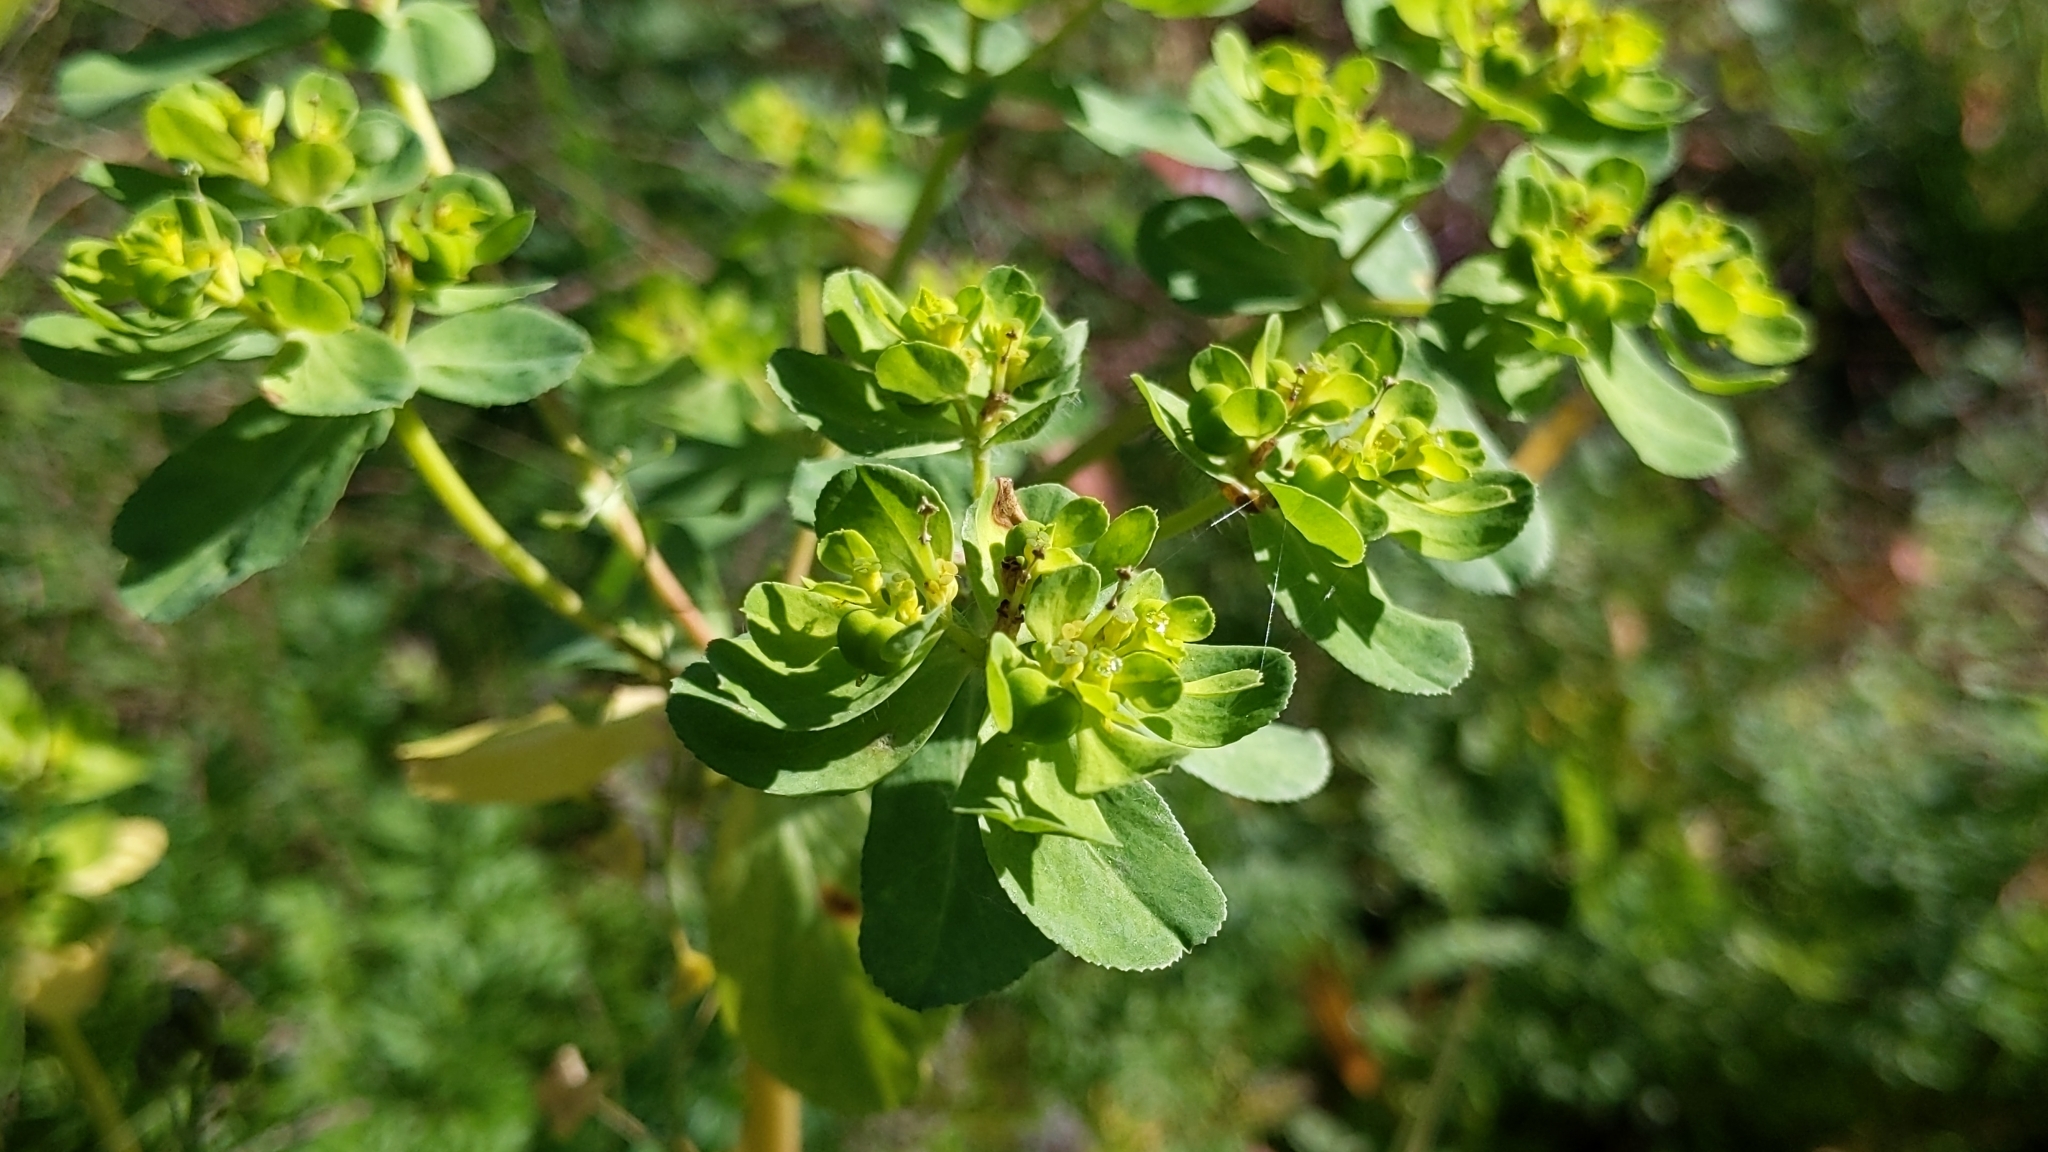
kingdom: Plantae
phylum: Tracheophyta
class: Magnoliopsida
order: Malpighiales
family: Euphorbiaceae
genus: Euphorbia
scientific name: Euphorbia helioscopia
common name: Sun spurge
